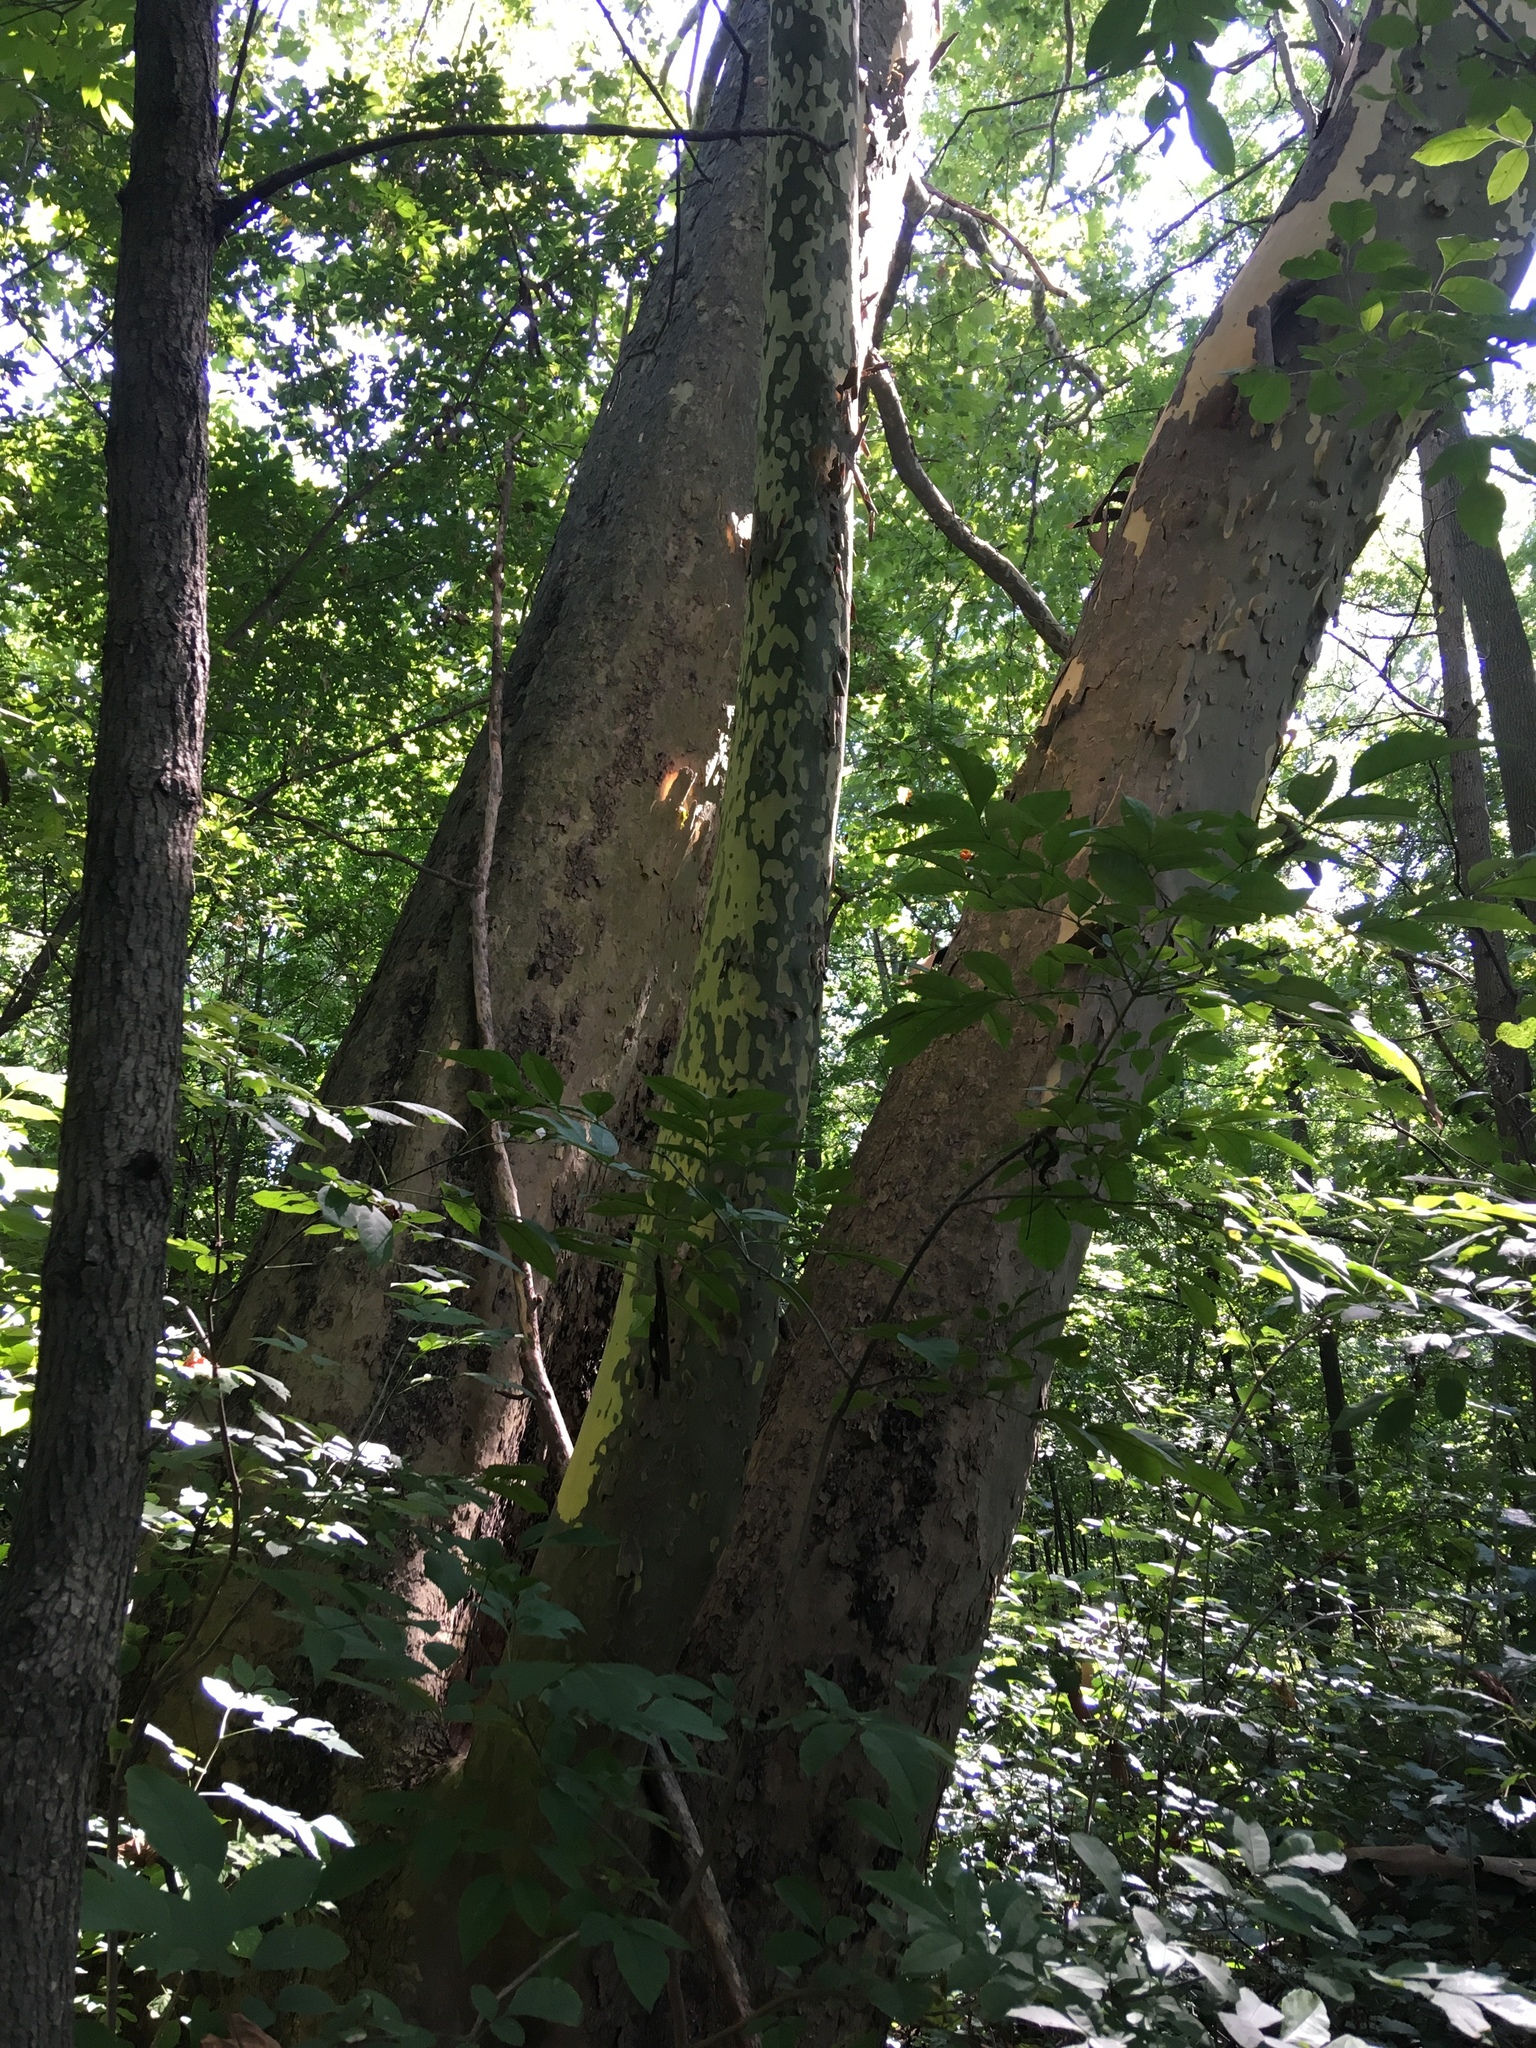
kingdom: Plantae
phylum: Tracheophyta
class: Magnoliopsida
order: Proteales
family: Platanaceae
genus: Platanus
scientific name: Platanus occidentalis
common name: American sycamore
